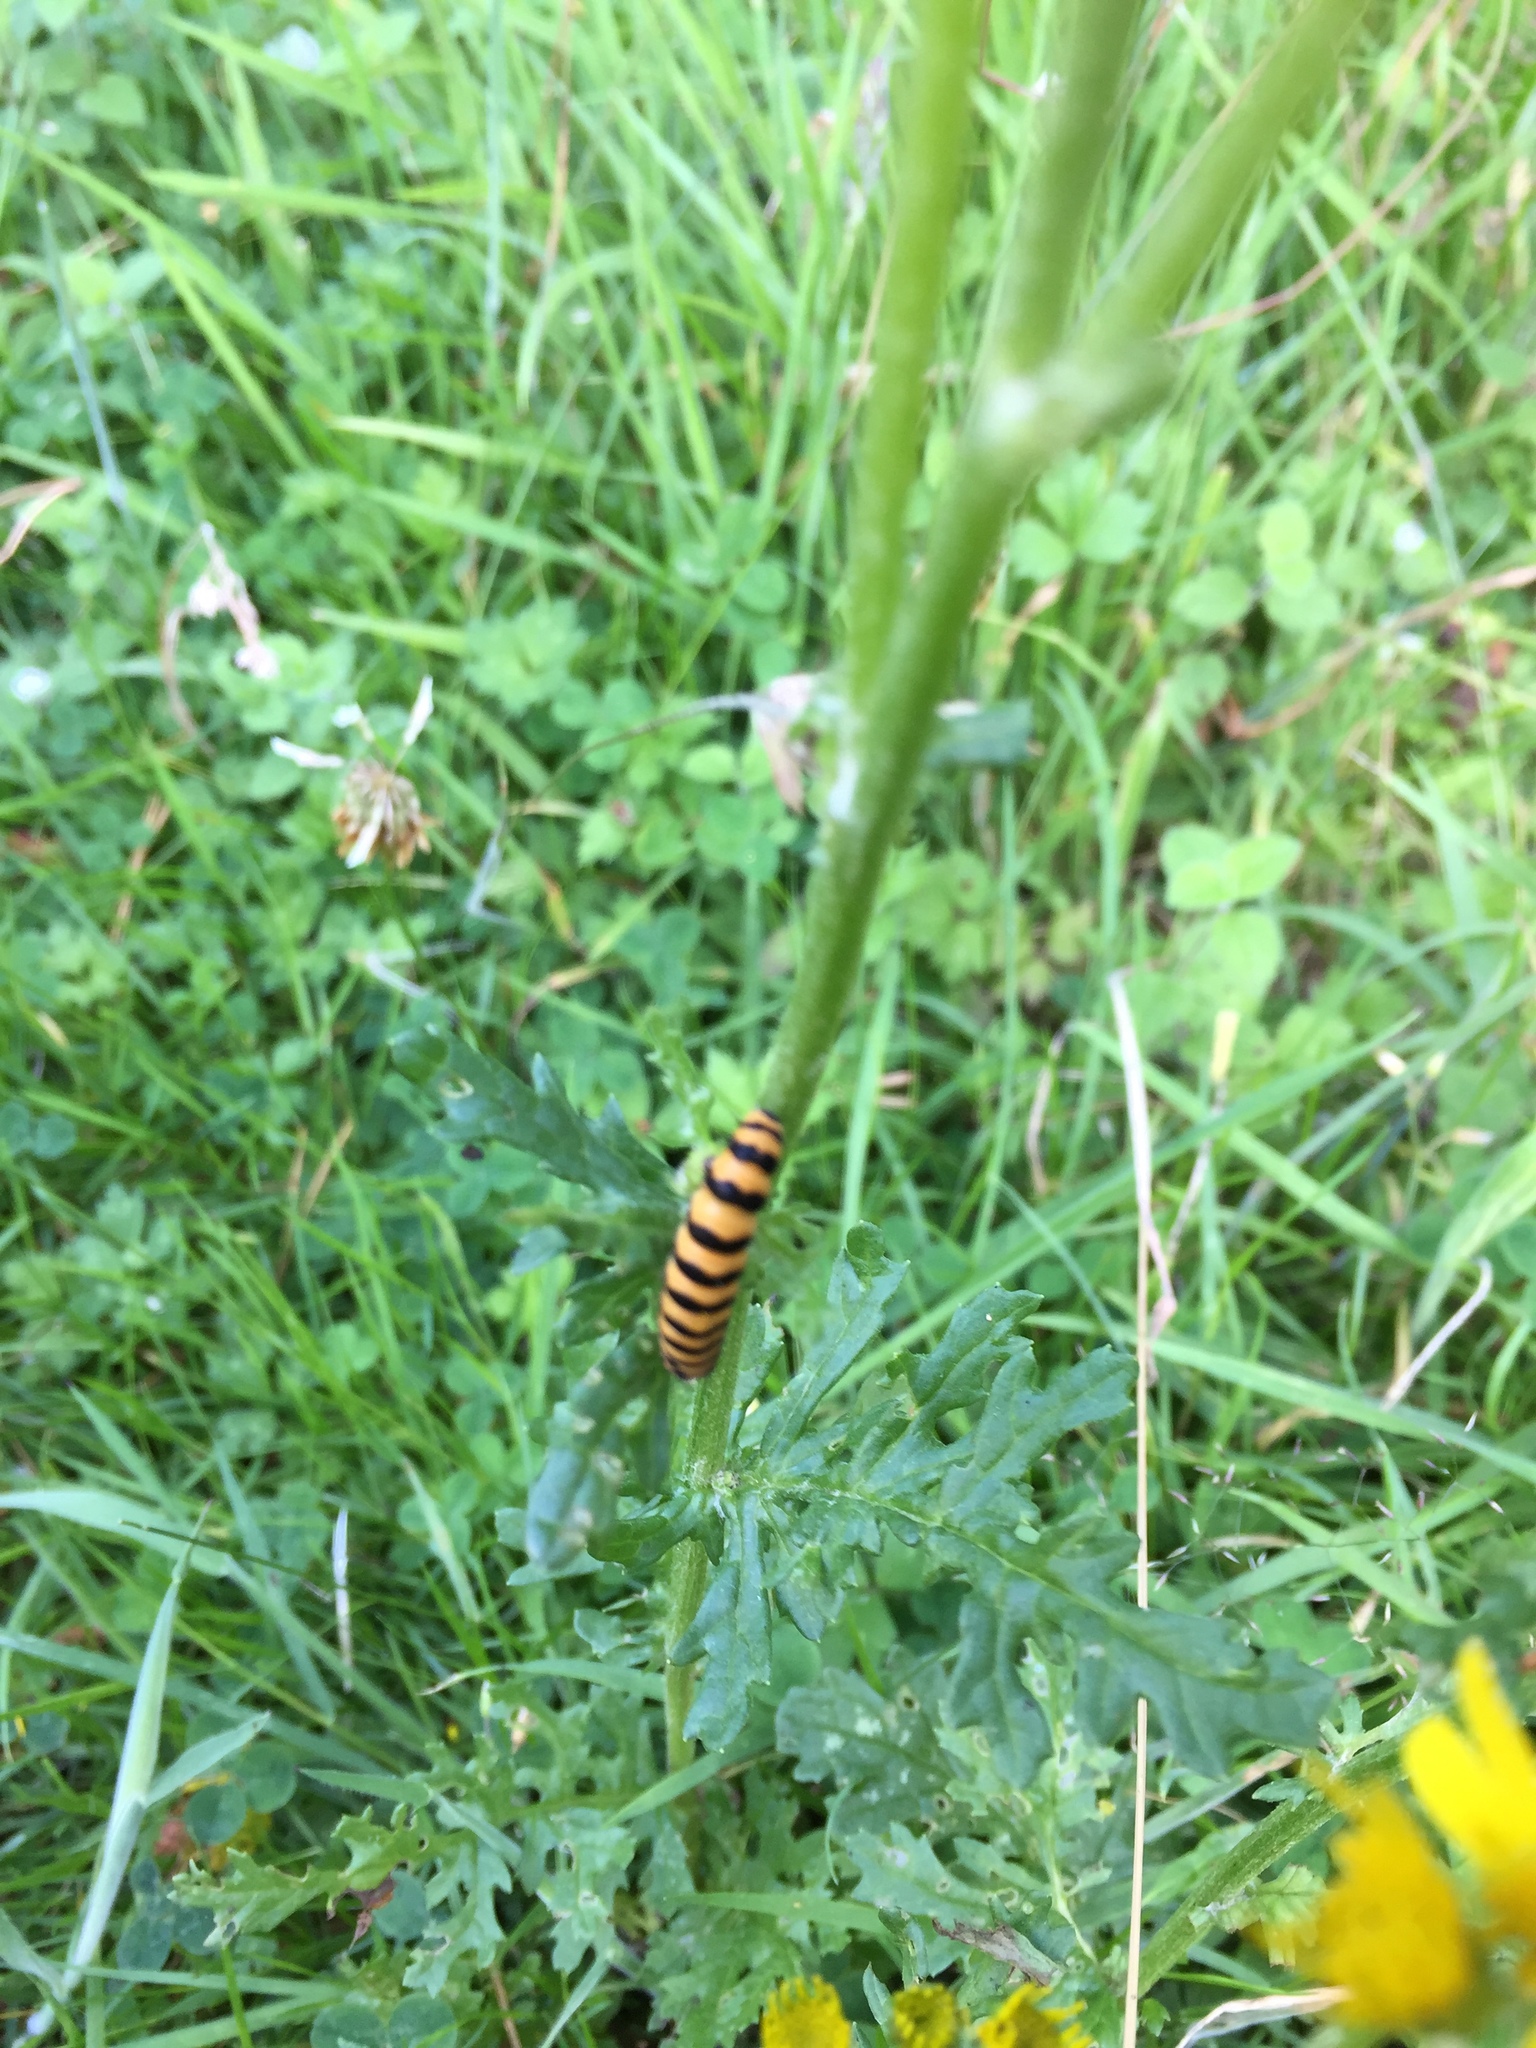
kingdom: Animalia
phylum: Arthropoda
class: Insecta
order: Lepidoptera
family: Erebidae
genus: Tyria
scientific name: Tyria jacobaeae
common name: Cinnabar
